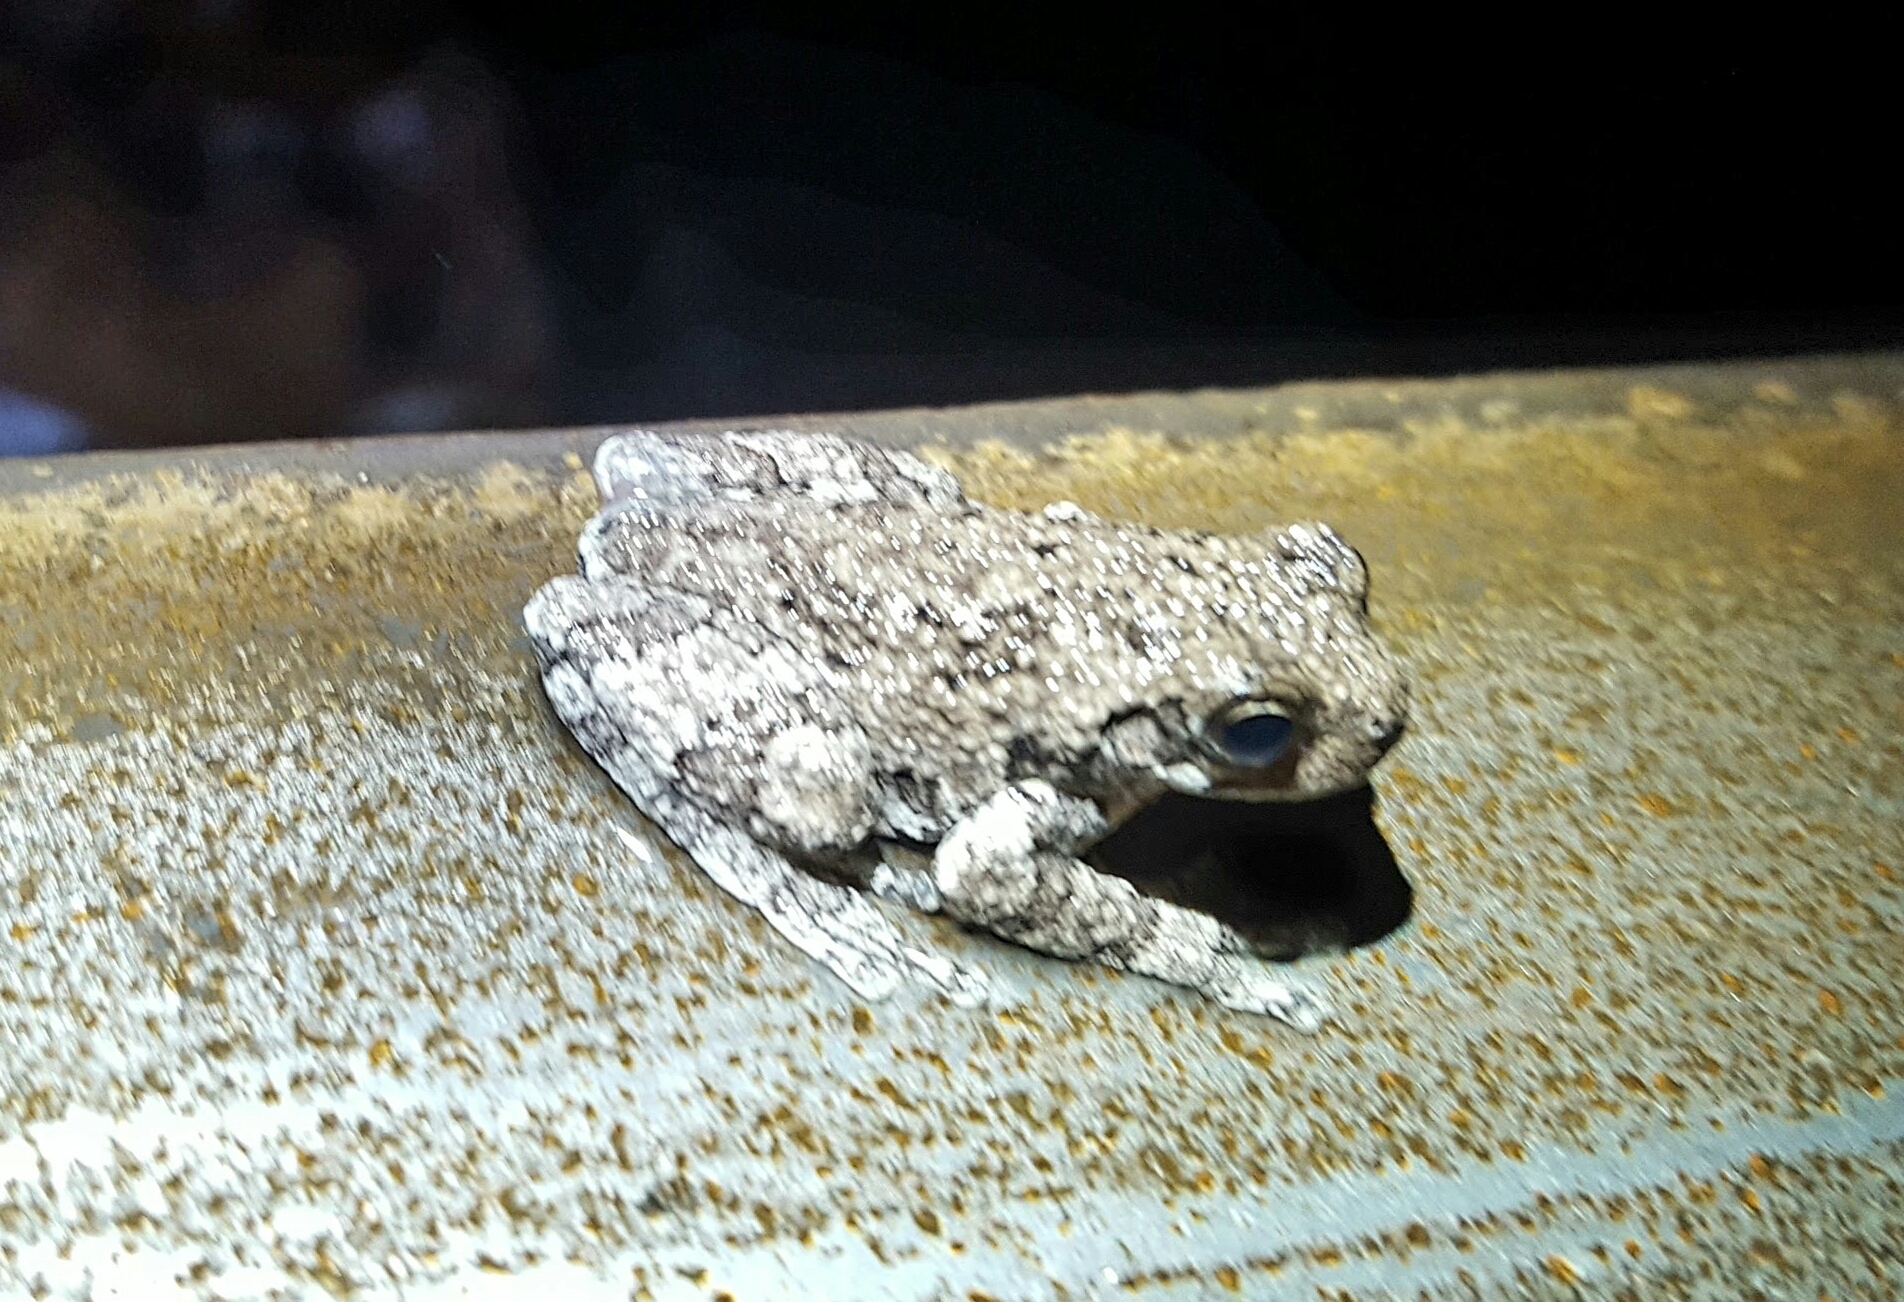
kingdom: Animalia
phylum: Chordata
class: Amphibia
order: Anura
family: Hylidae
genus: Hyla
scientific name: Hyla
